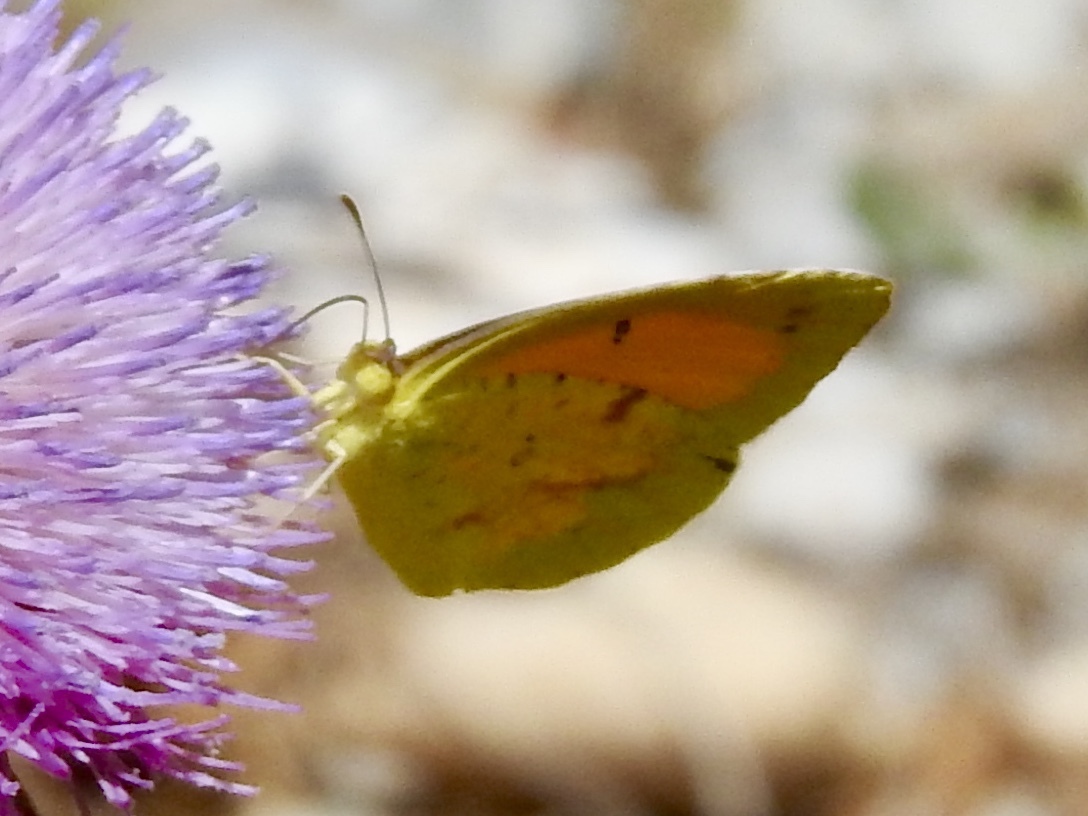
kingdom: Animalia
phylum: Arthropoda
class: Insecta
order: Lepidoptera
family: Pieridae
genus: Abaeis
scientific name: Abaeis nicippe
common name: Sleepy orange
